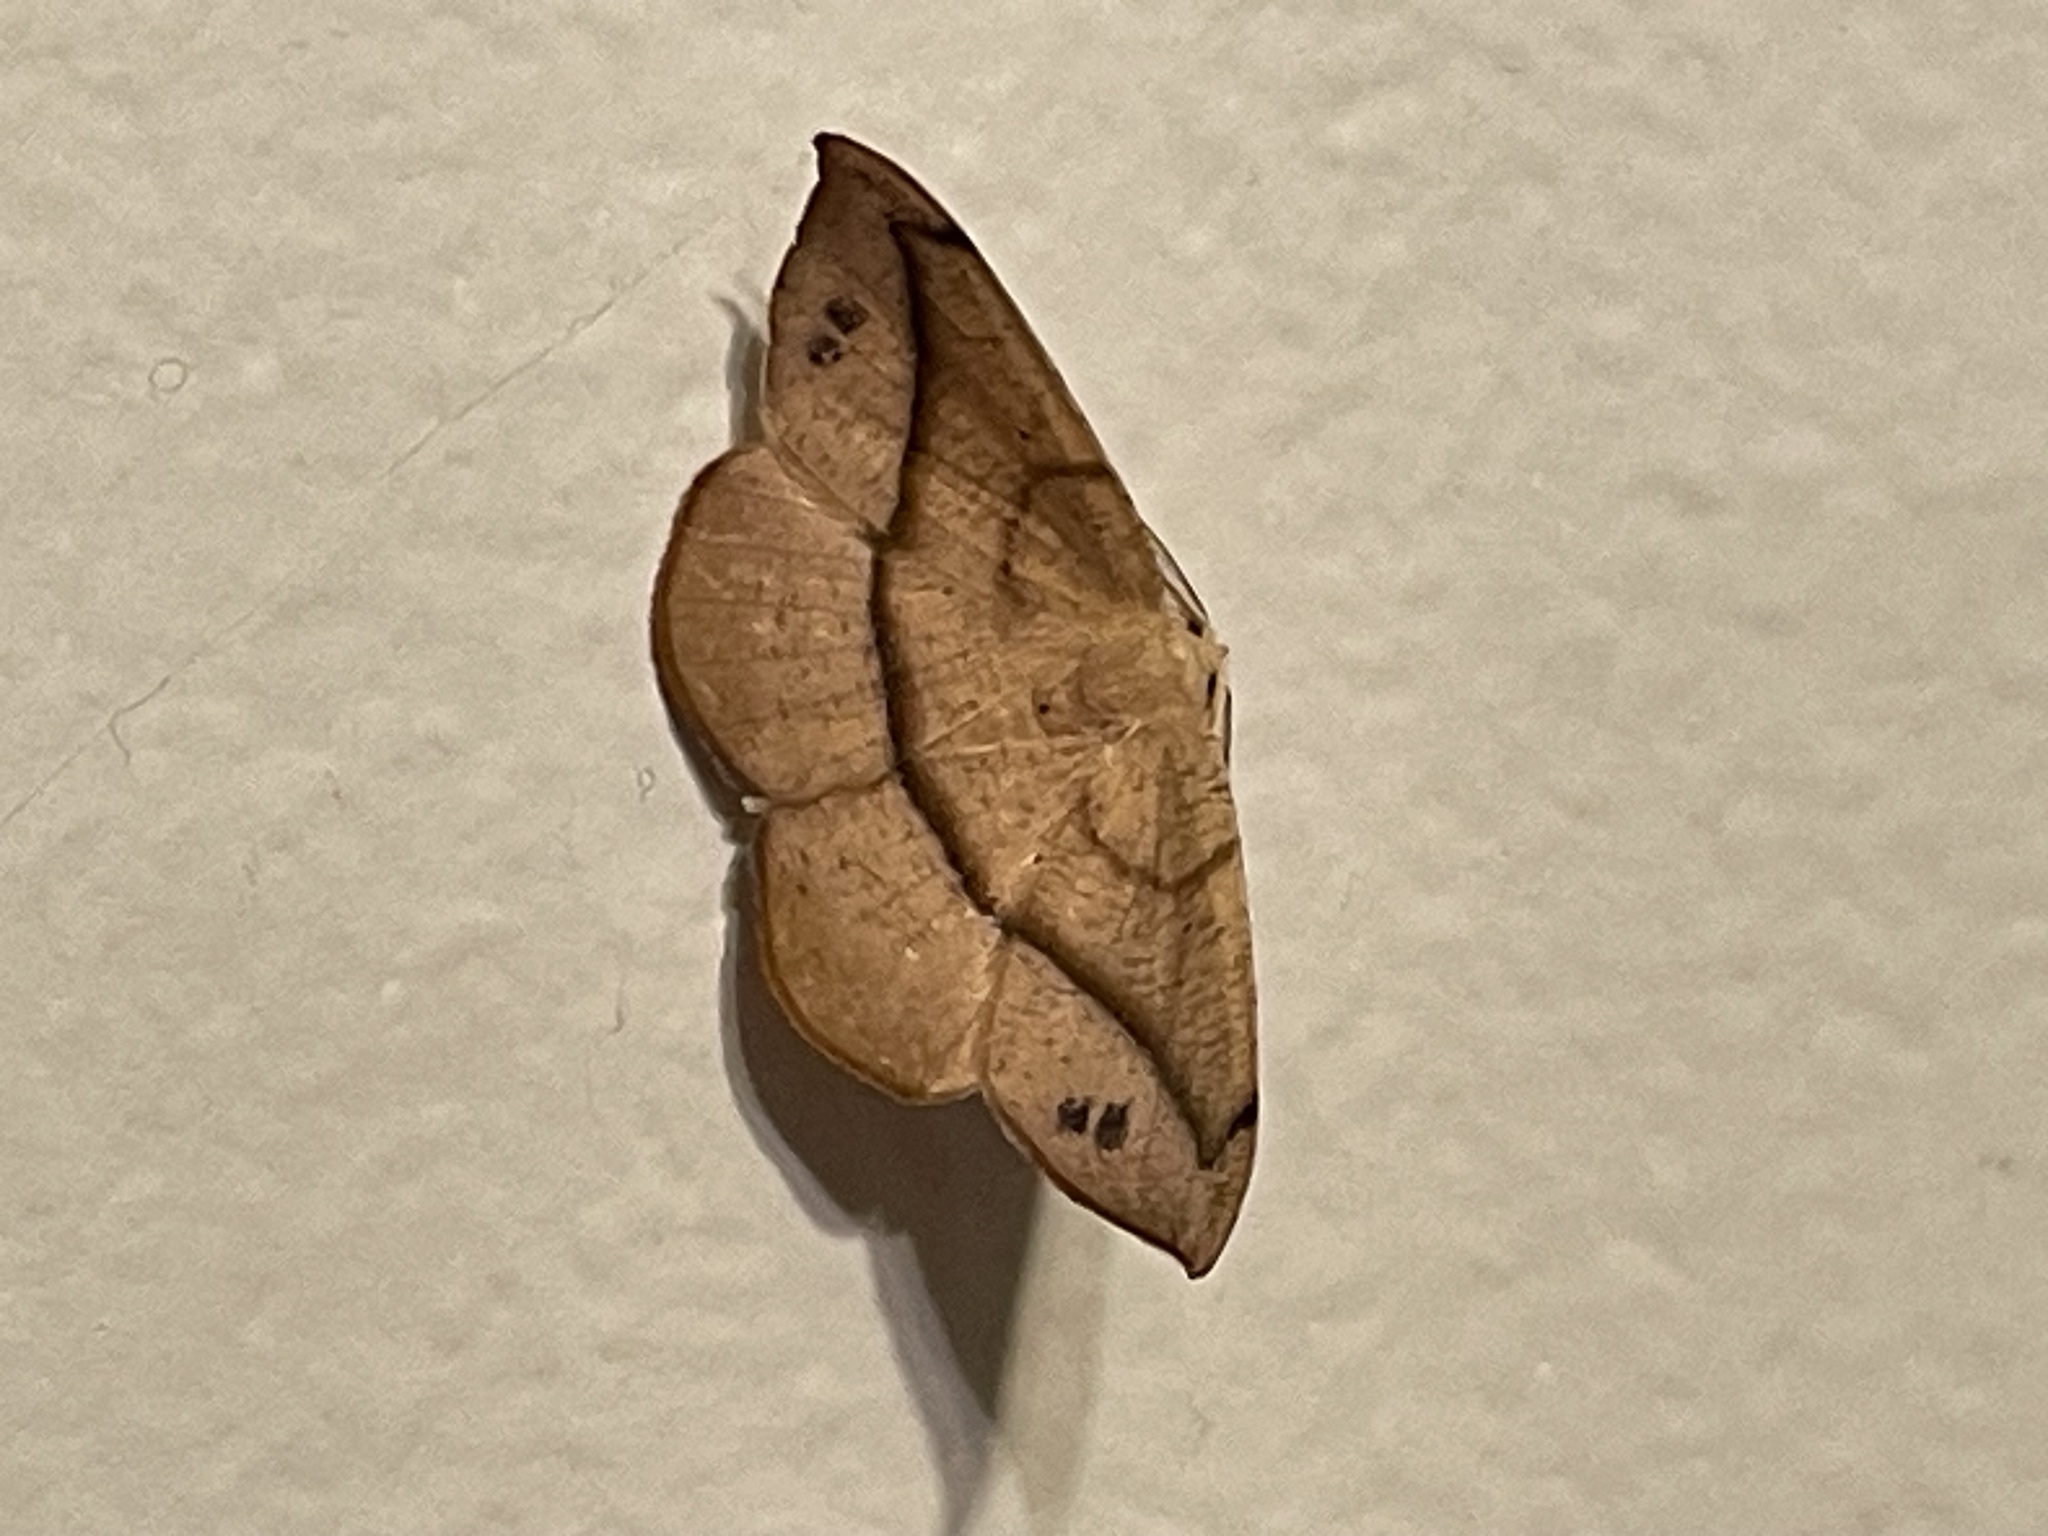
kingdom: Animalia
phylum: Arthropoda
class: Insecta
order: Lepidoptera
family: Geometridae
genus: Patalene
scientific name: Patalene olyzonaria
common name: Juniper geometer moth
